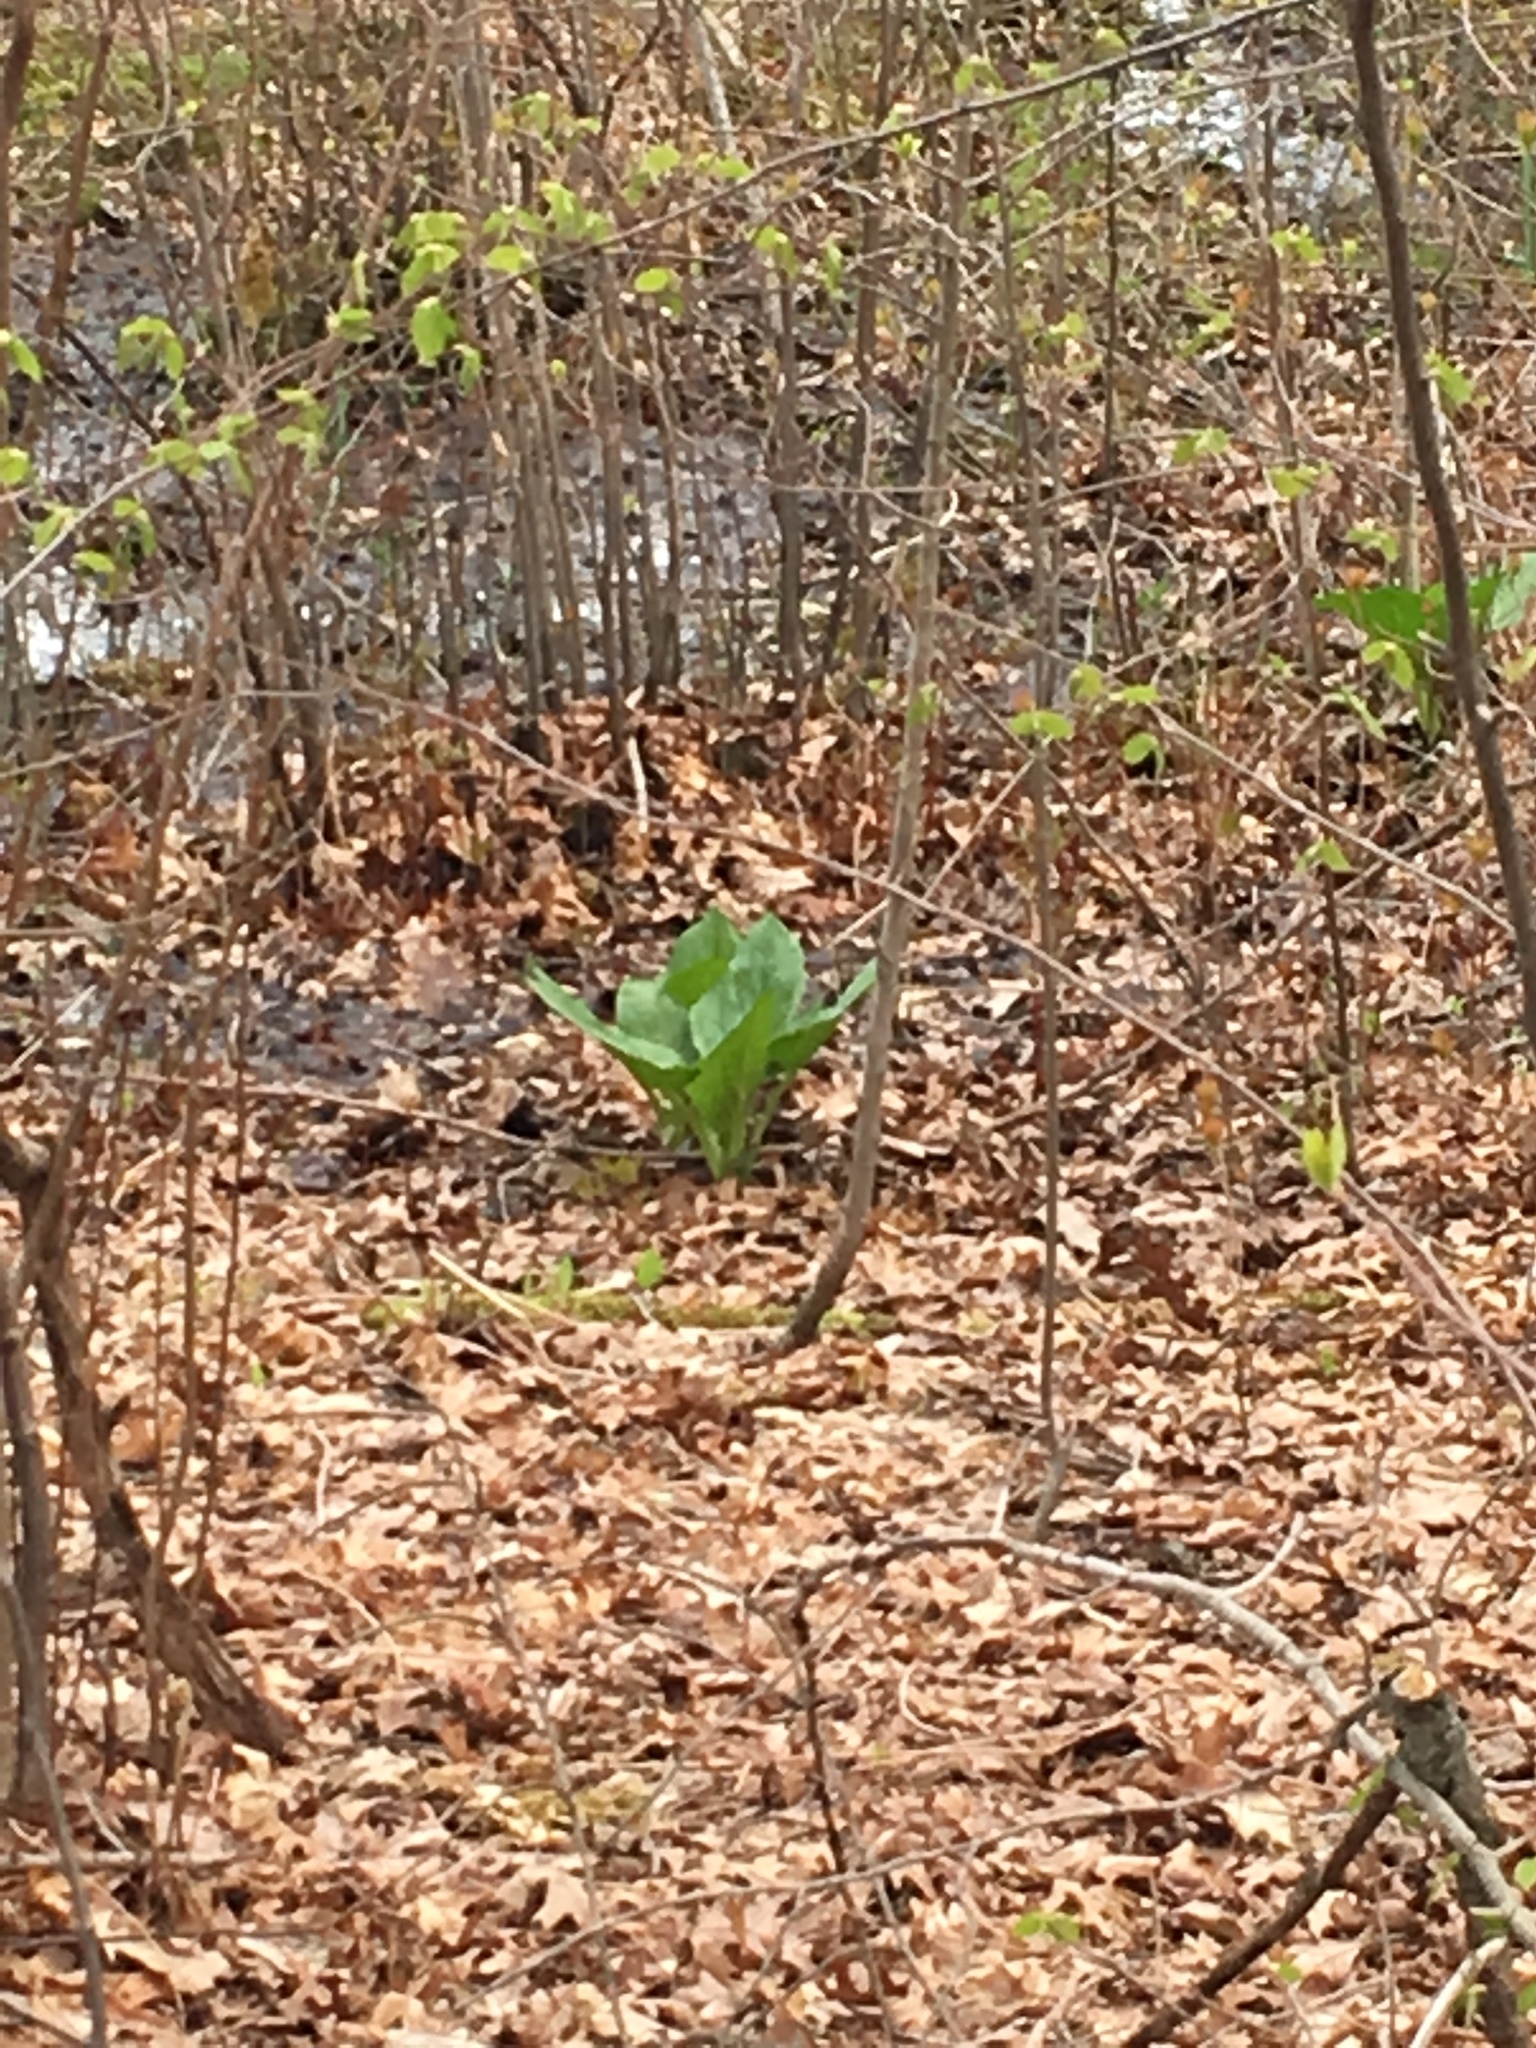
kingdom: Plantae
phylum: Tracheophyta
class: Liliopsida
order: Alismatales
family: Araceae
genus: Symplocarpus
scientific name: Symplocarpus foetidus
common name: Eastern skunk cabbage
